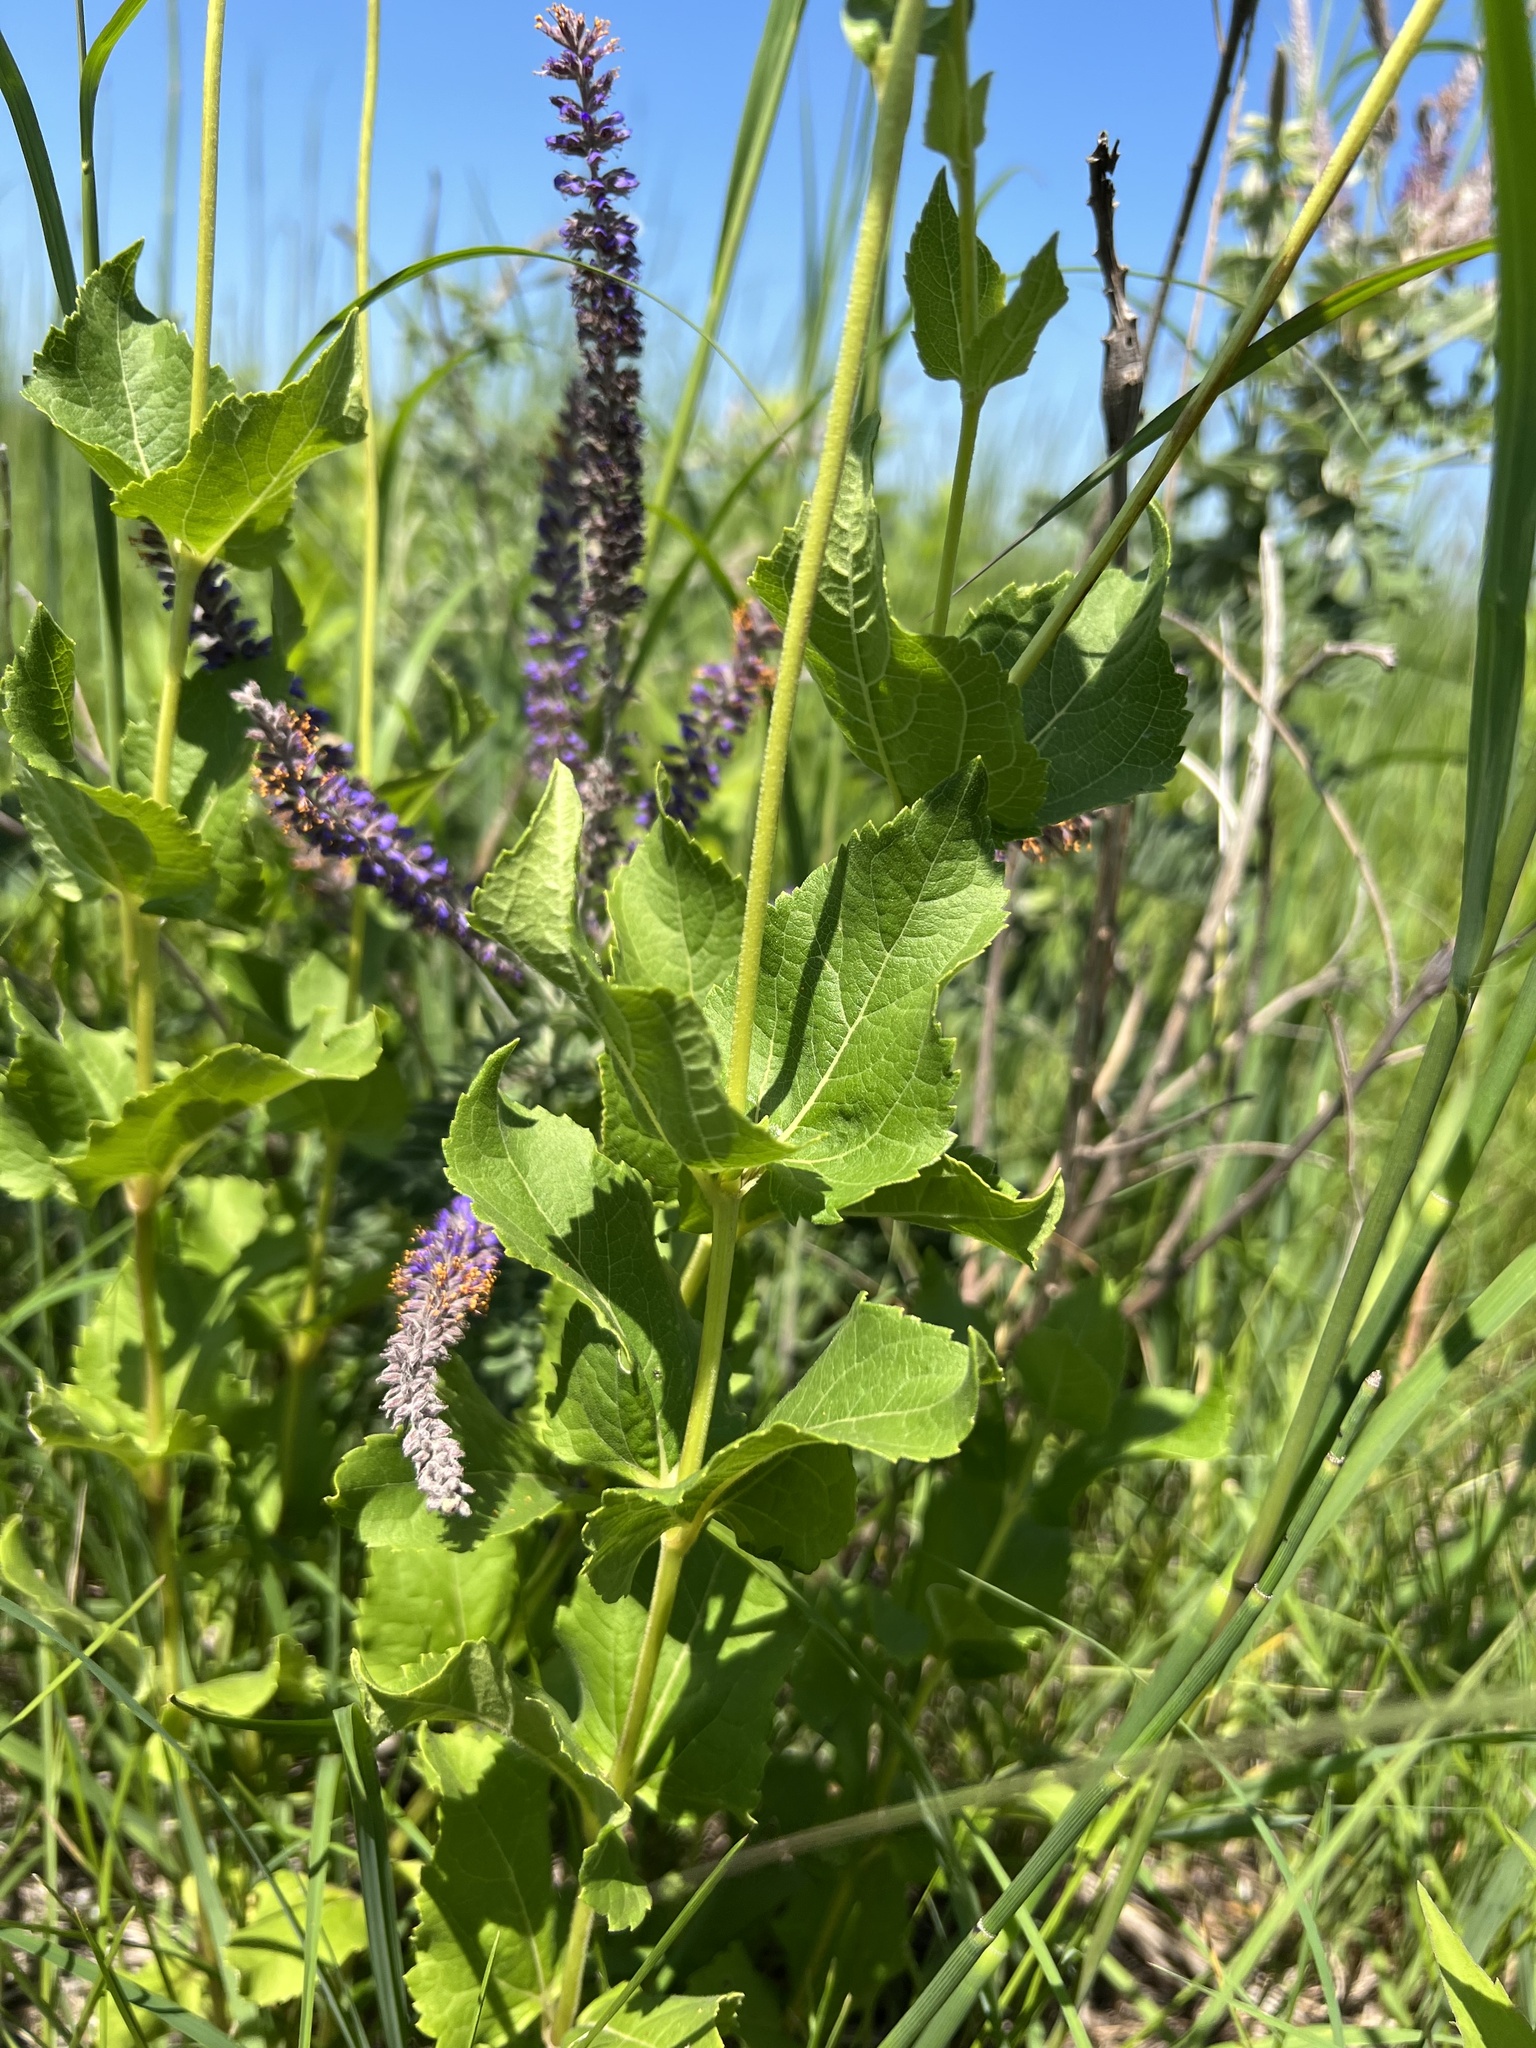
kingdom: Plantae
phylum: Tracheophyta
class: Magnoliopsida
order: Asterales
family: Asteraceae
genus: Heliopsis
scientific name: Heliopsis helianthoides
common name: False sunflower
